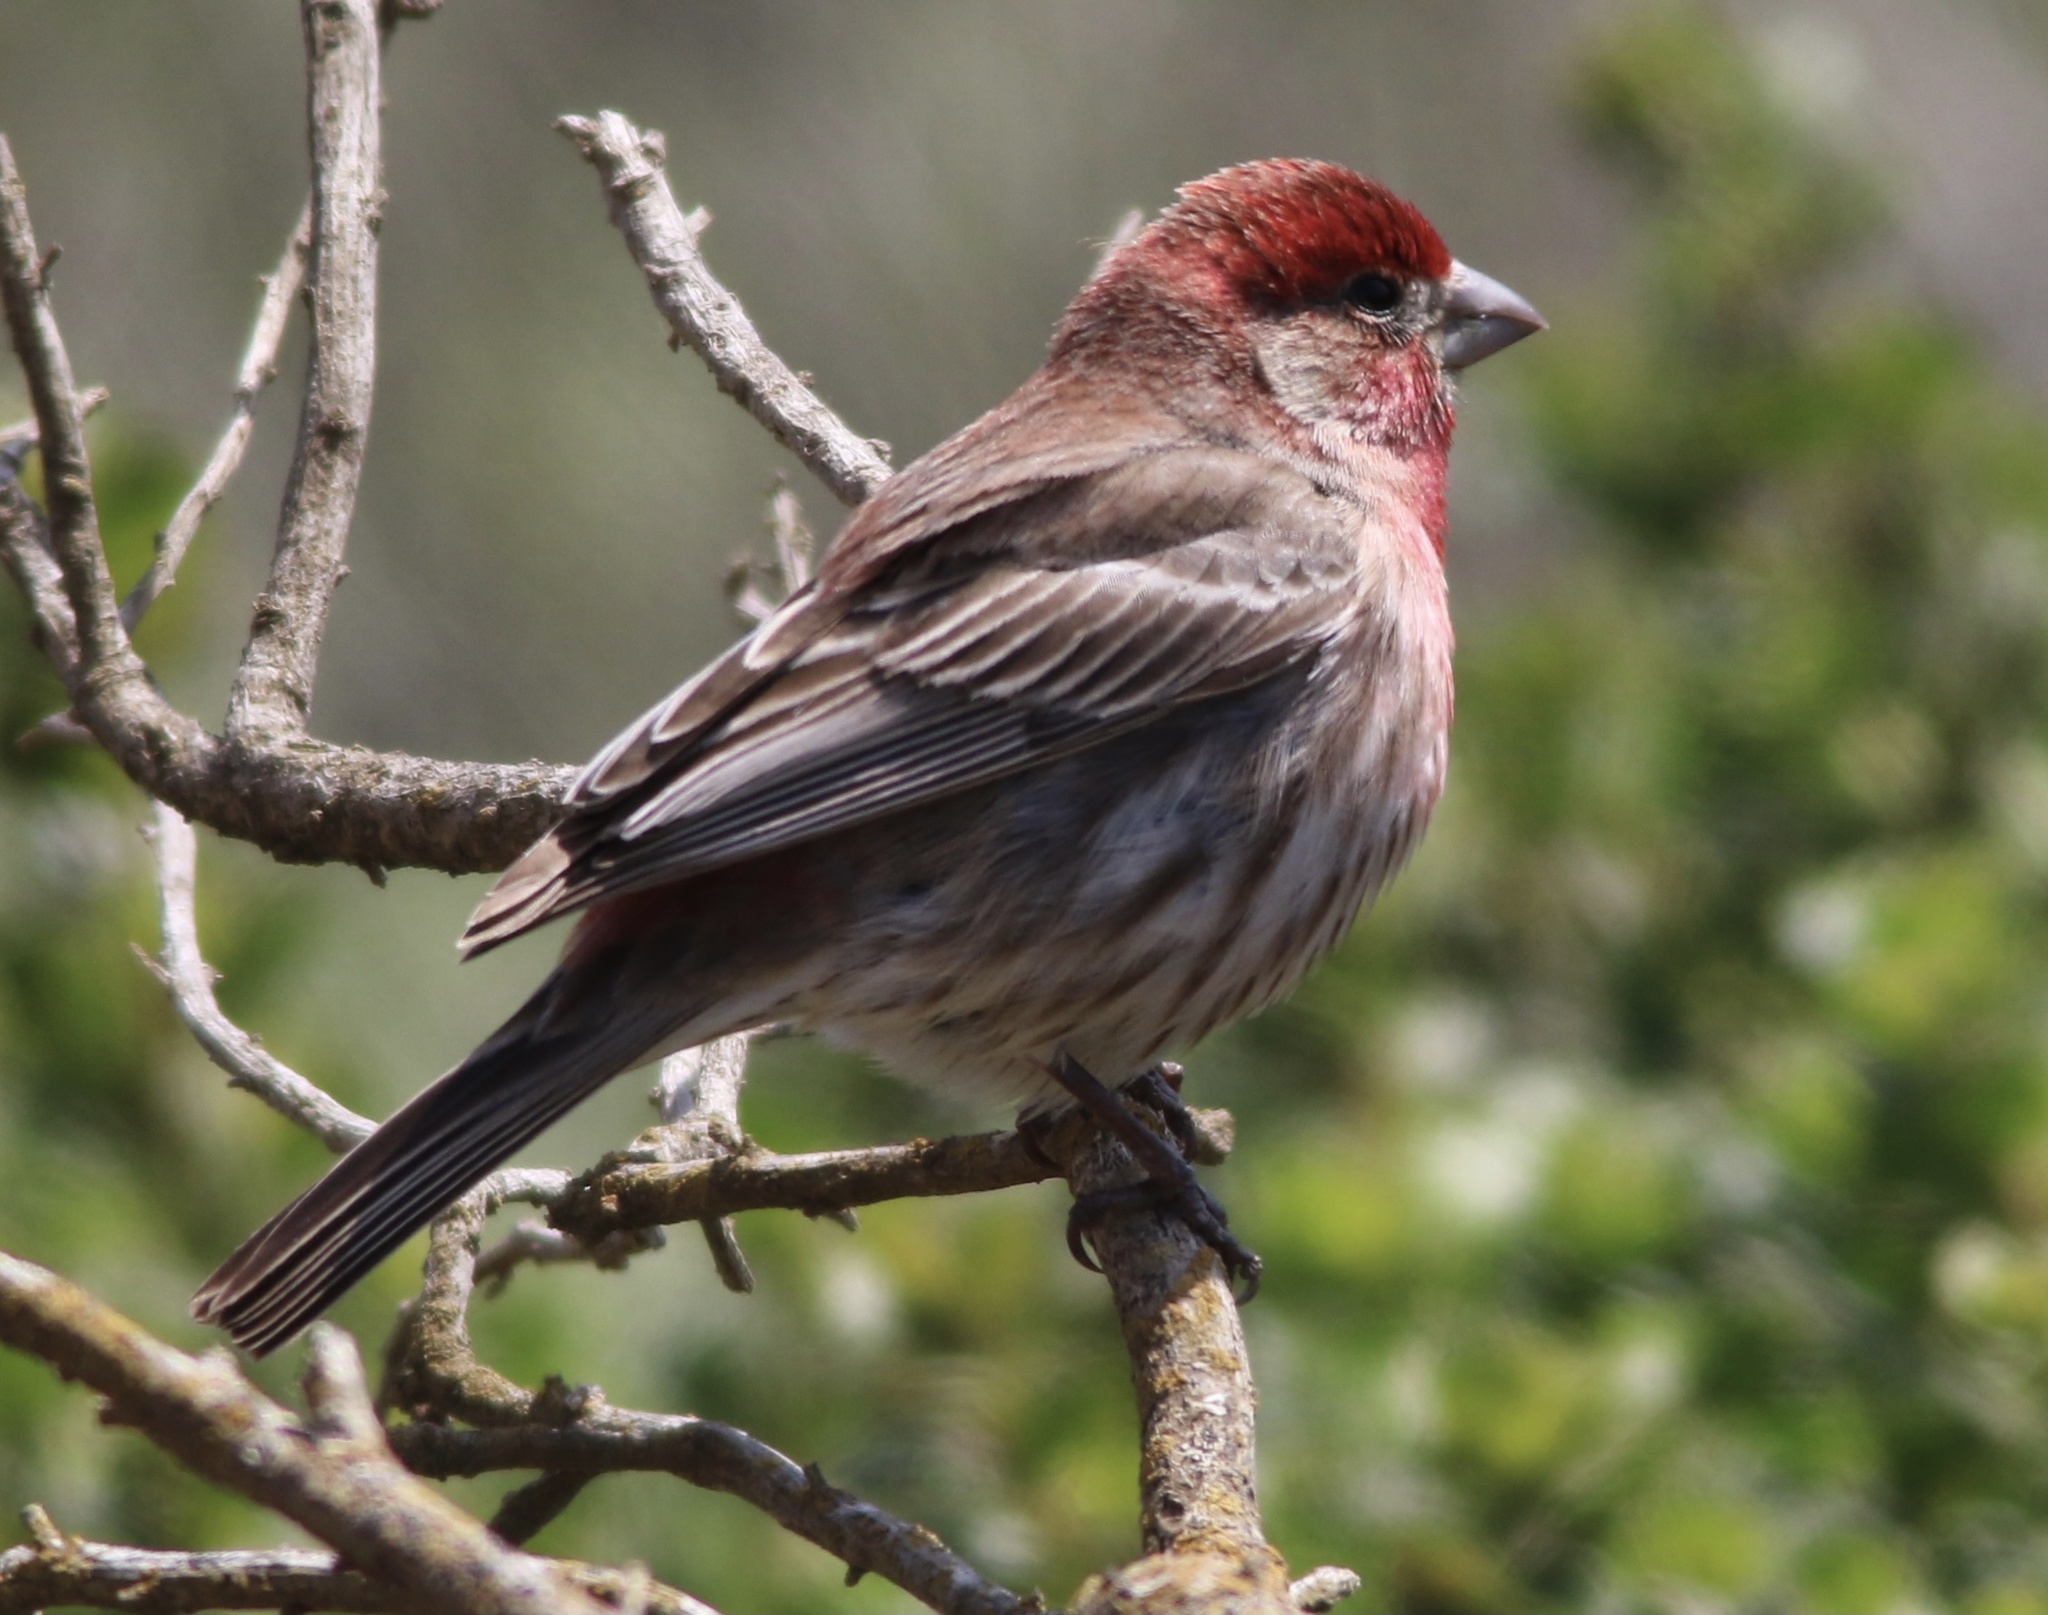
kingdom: Animalia
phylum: Chordata
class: Aves
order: Passeriformes
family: Fringillidae
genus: Haemorhous
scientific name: Haemorhous mexicanus
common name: House finch
